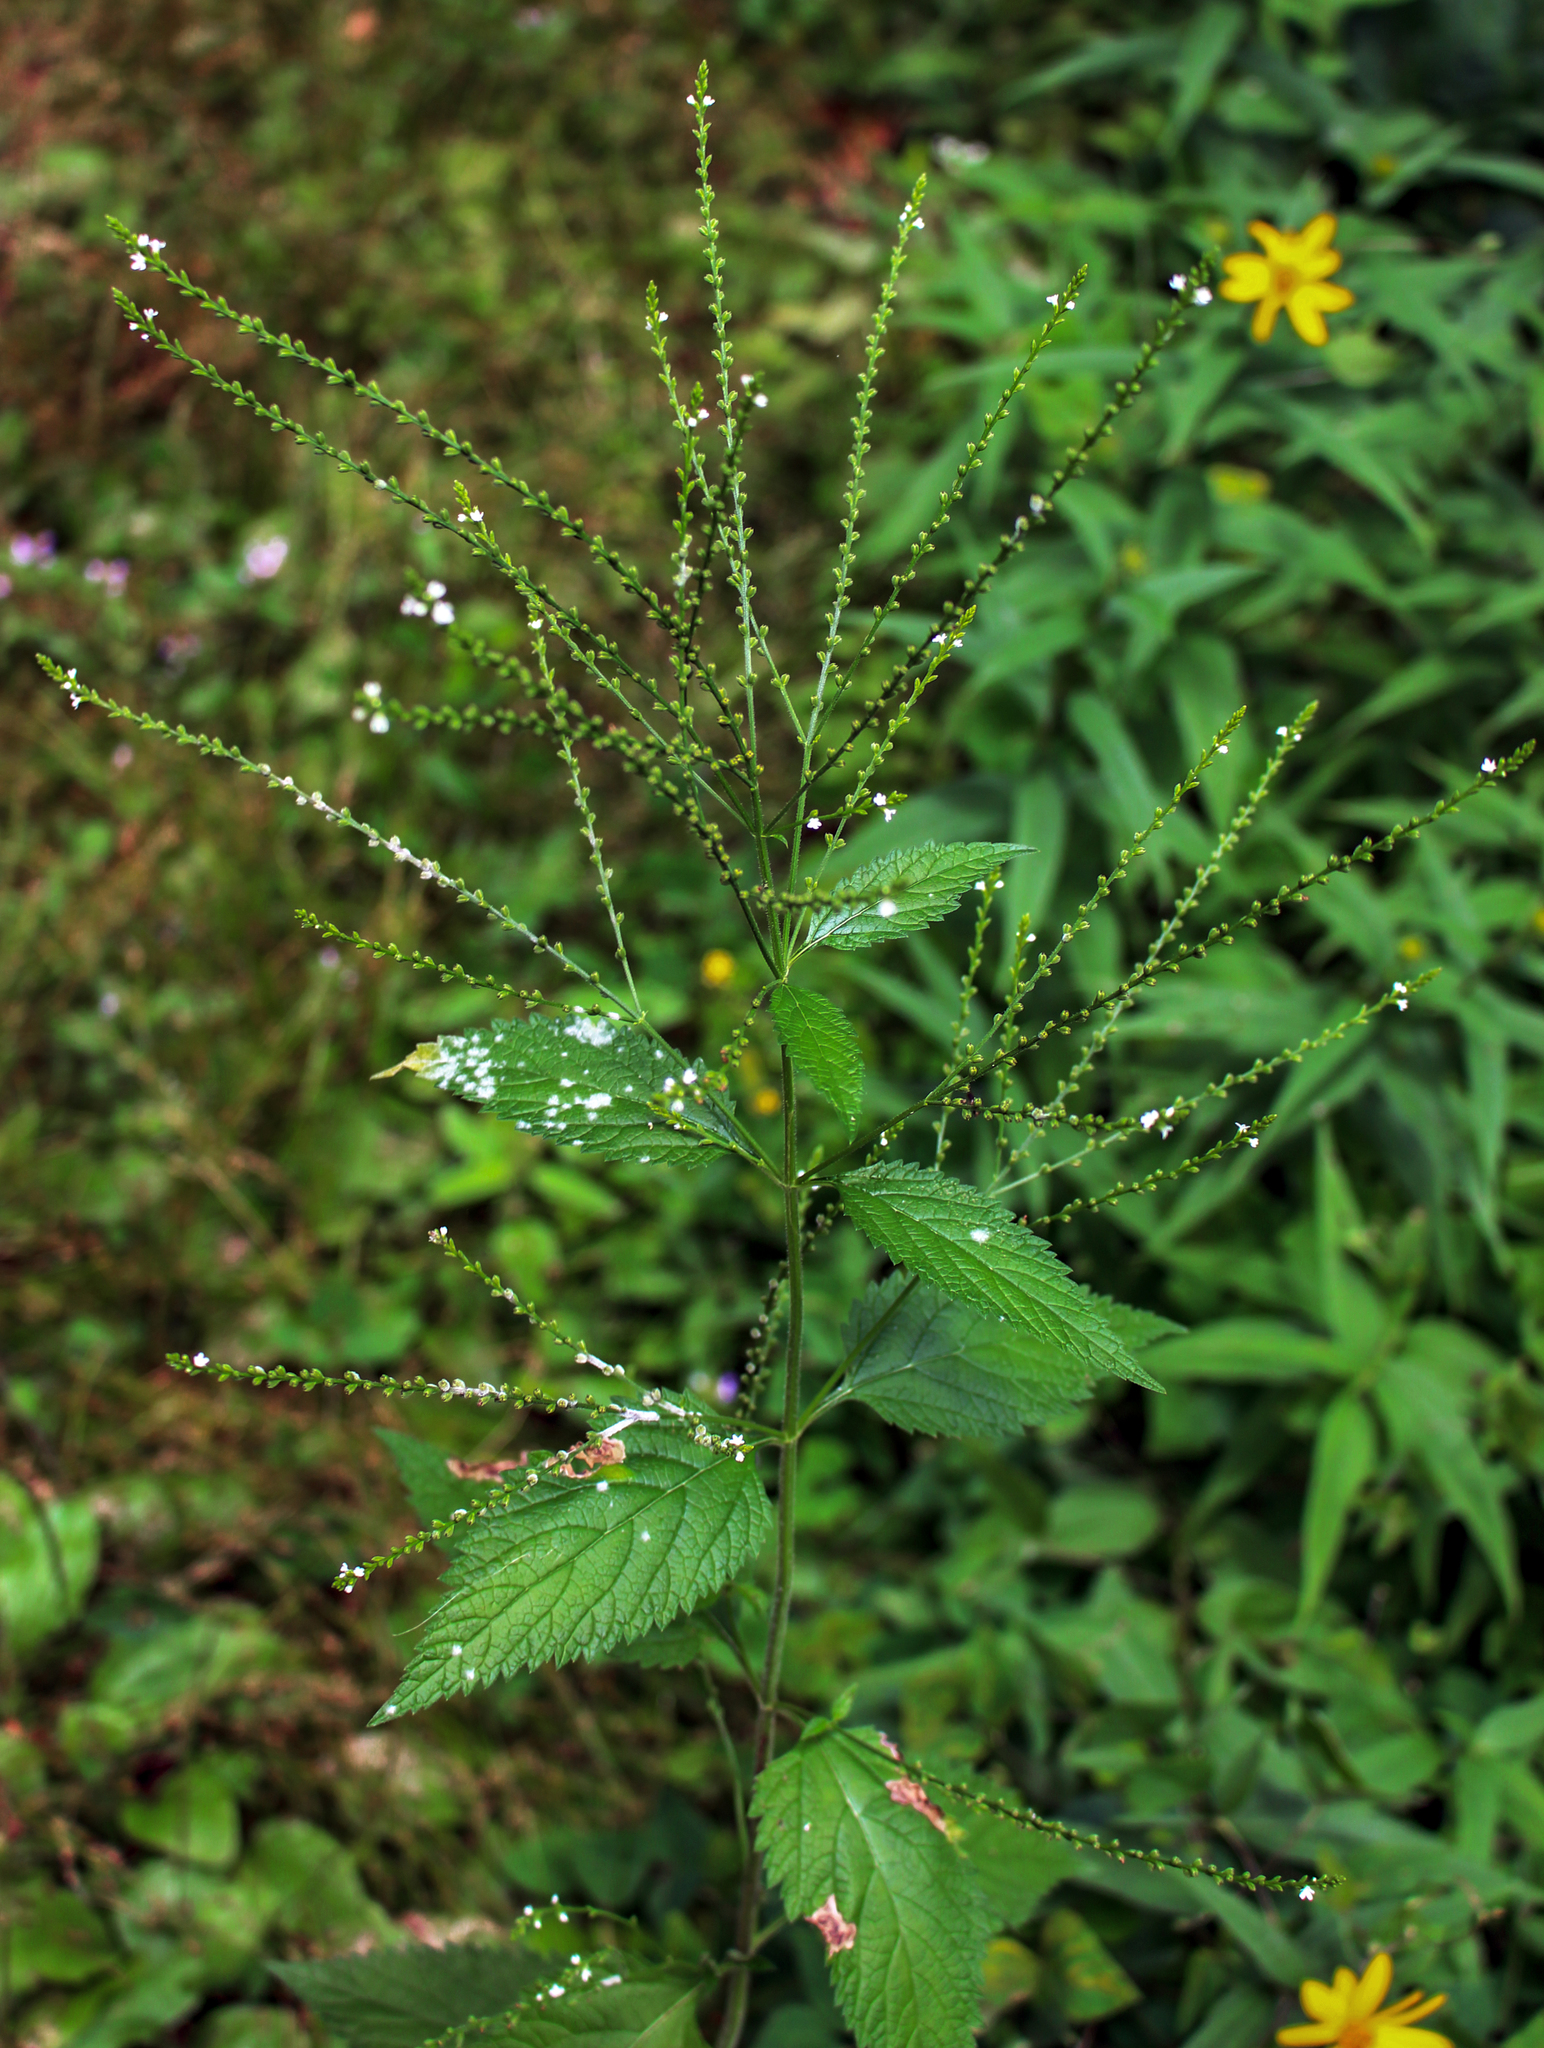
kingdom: Plantae
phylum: Tracheophyta
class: Magnoliopsida
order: Lamiales
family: Verbenaceae
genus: Verbena
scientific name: Verbena urticifolia
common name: Nettle-leaved vervain
